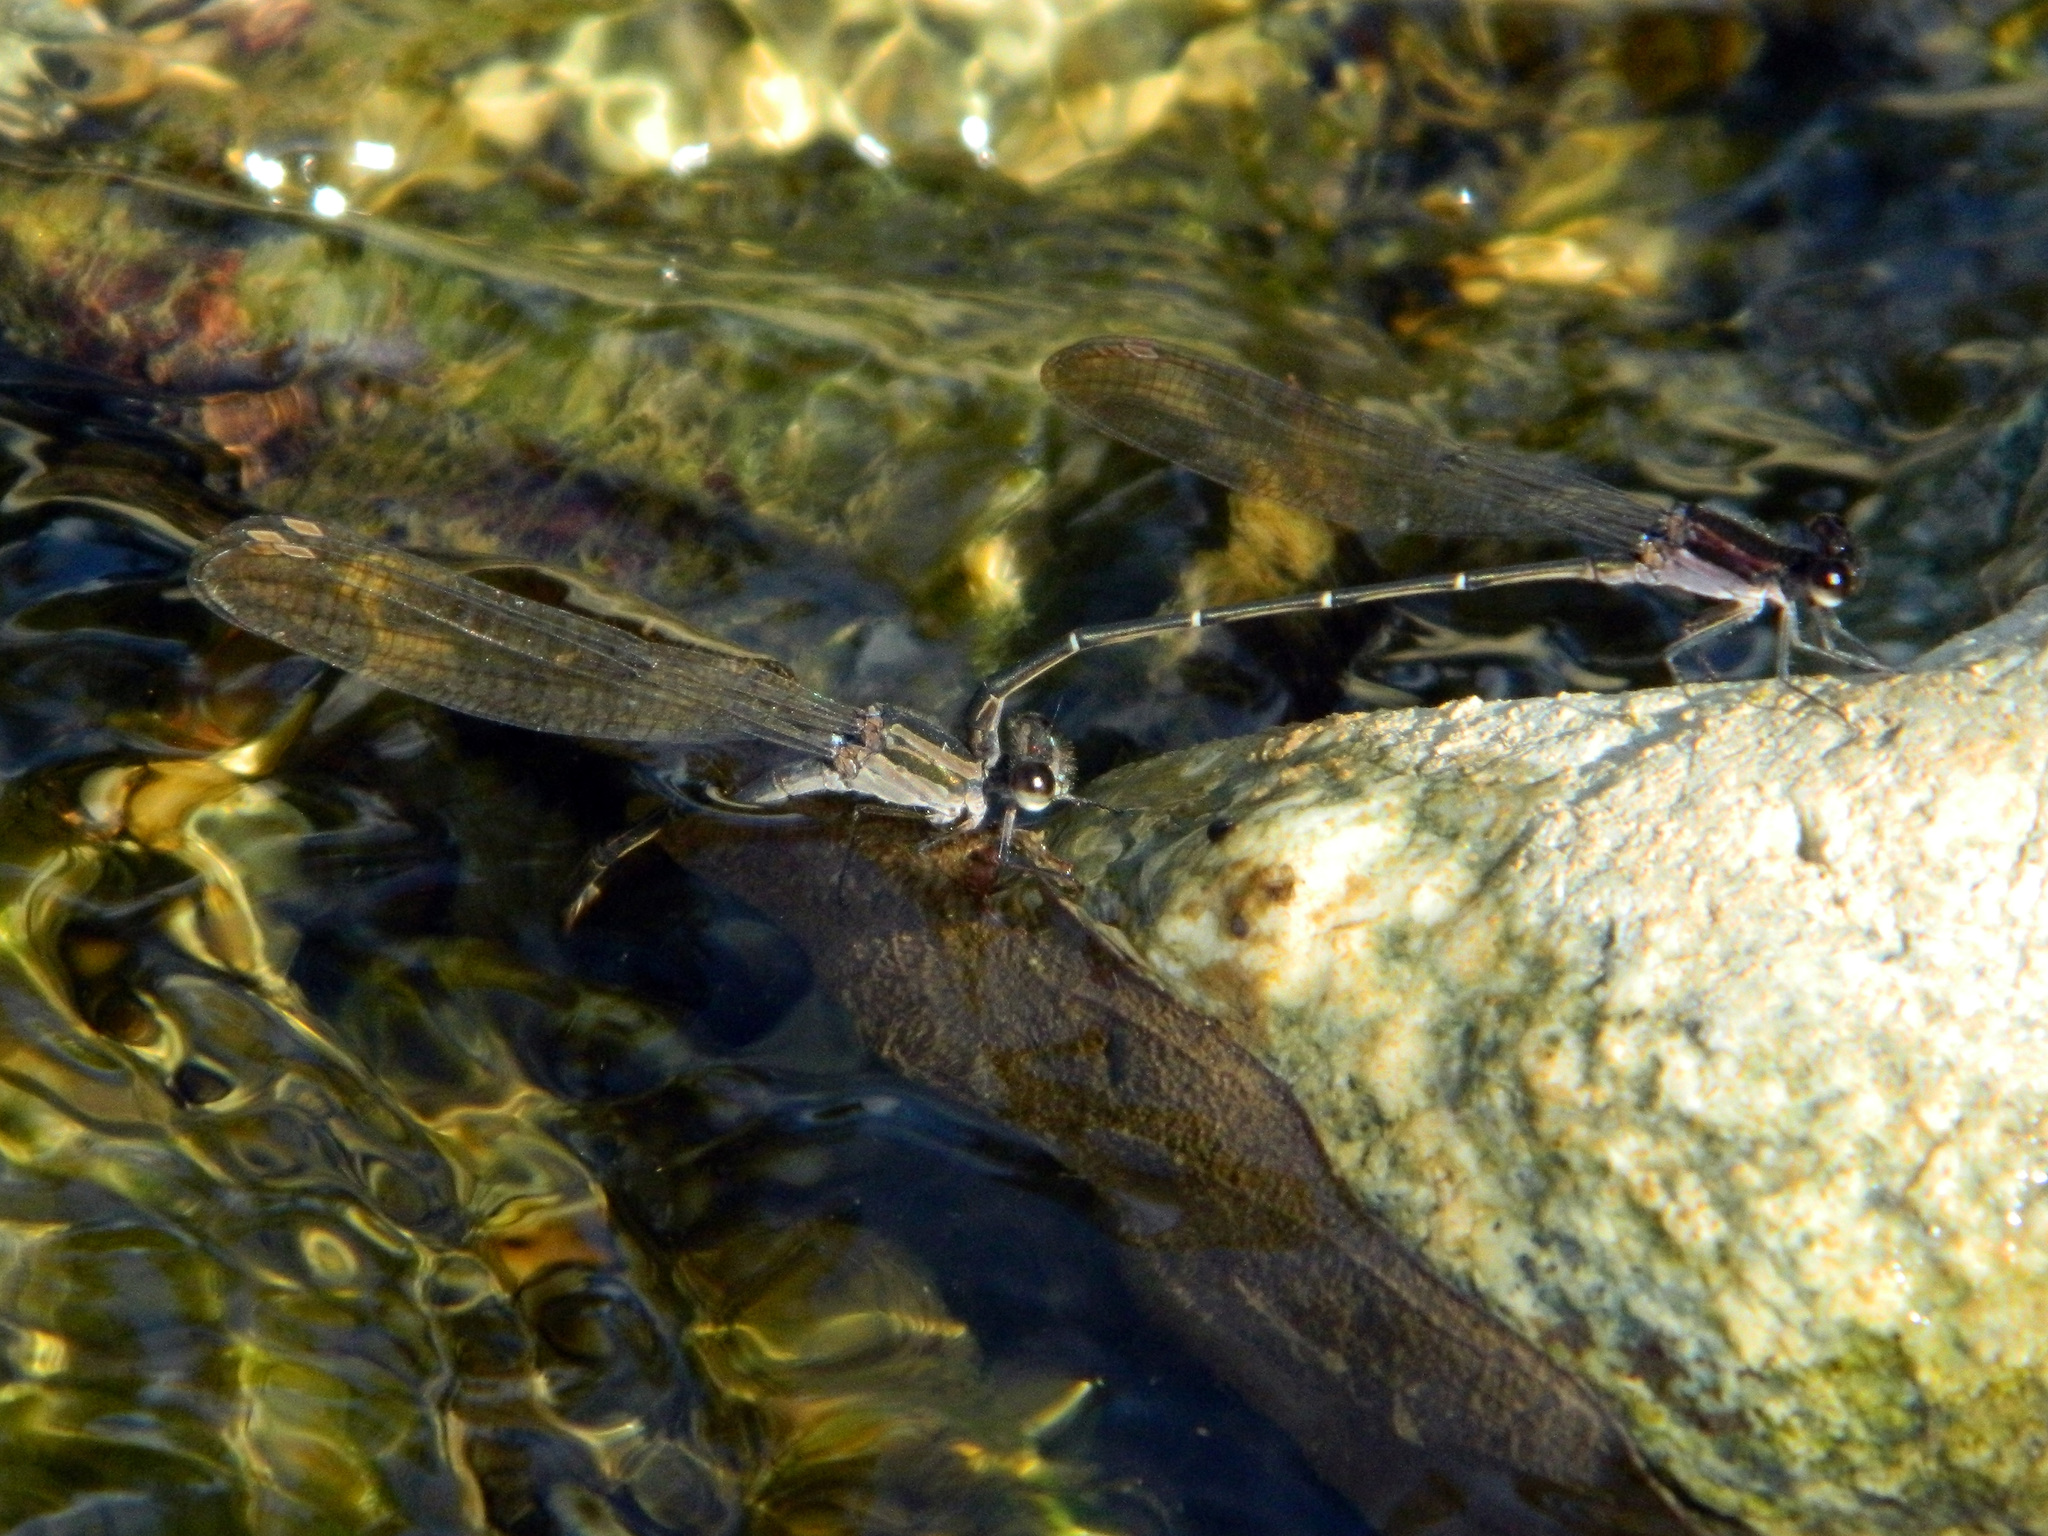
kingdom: Animalia
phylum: Arthropoda
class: Insecta
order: Odonata
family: Coenagrionidae
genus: Argia
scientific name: Argia tezpi
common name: Tezpi dancer
